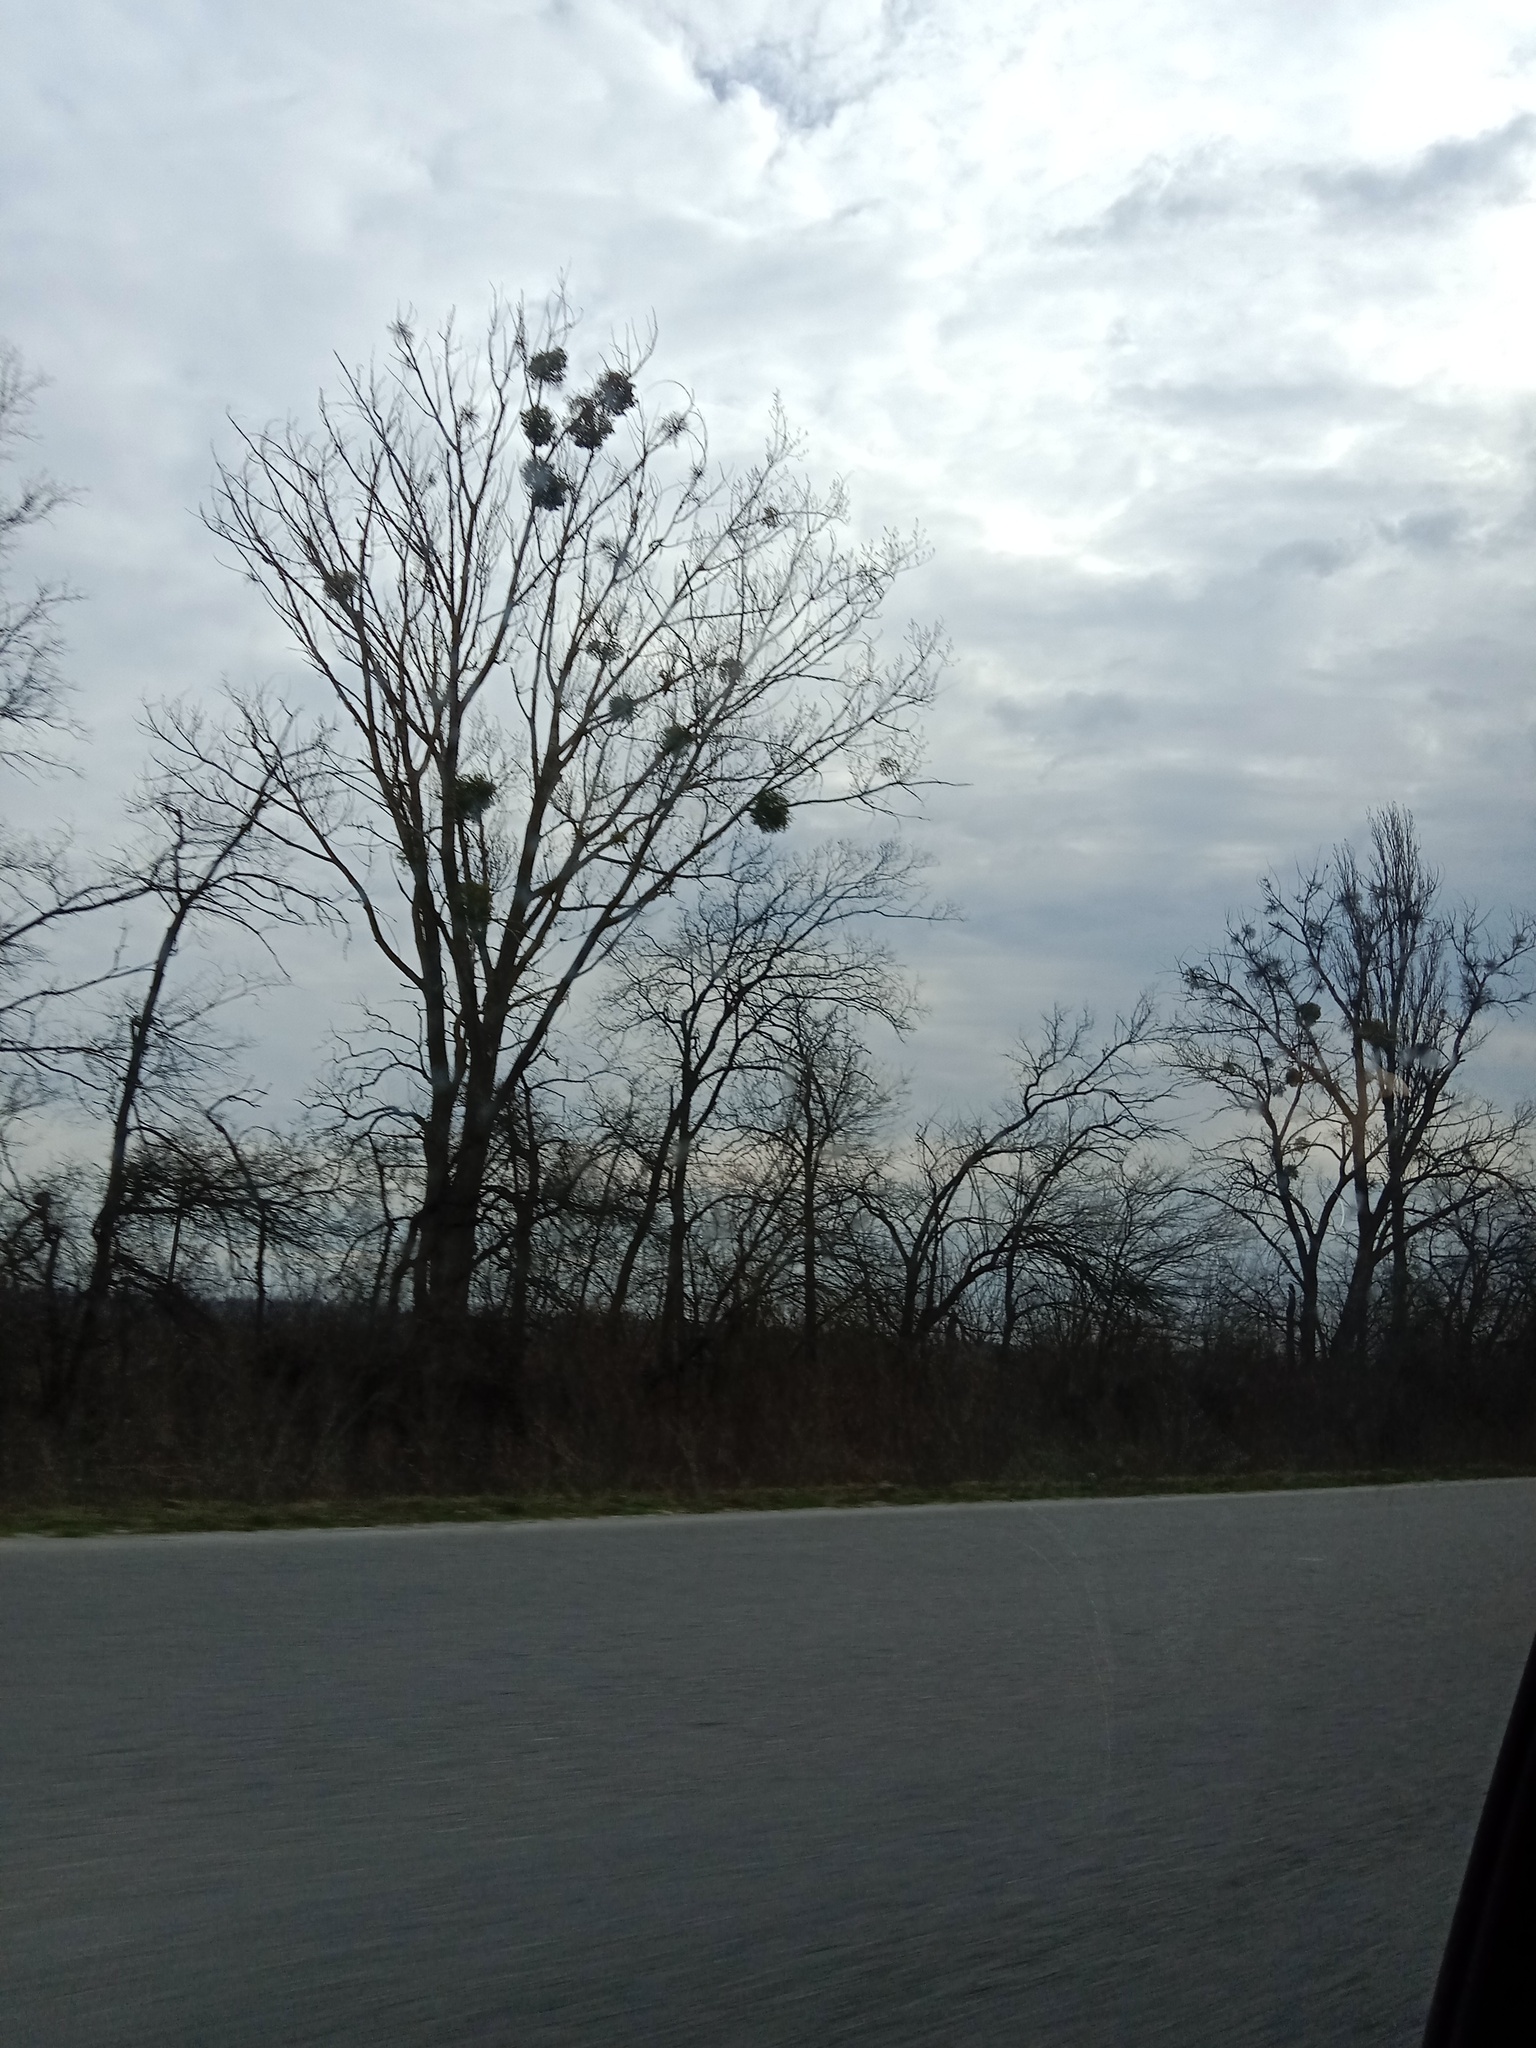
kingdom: Plantae
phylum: Tracheophyta
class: Magnoliopsida
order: Santalales
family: Viscaceae
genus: Viscum
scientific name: Viscum album
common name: Mistletoe
